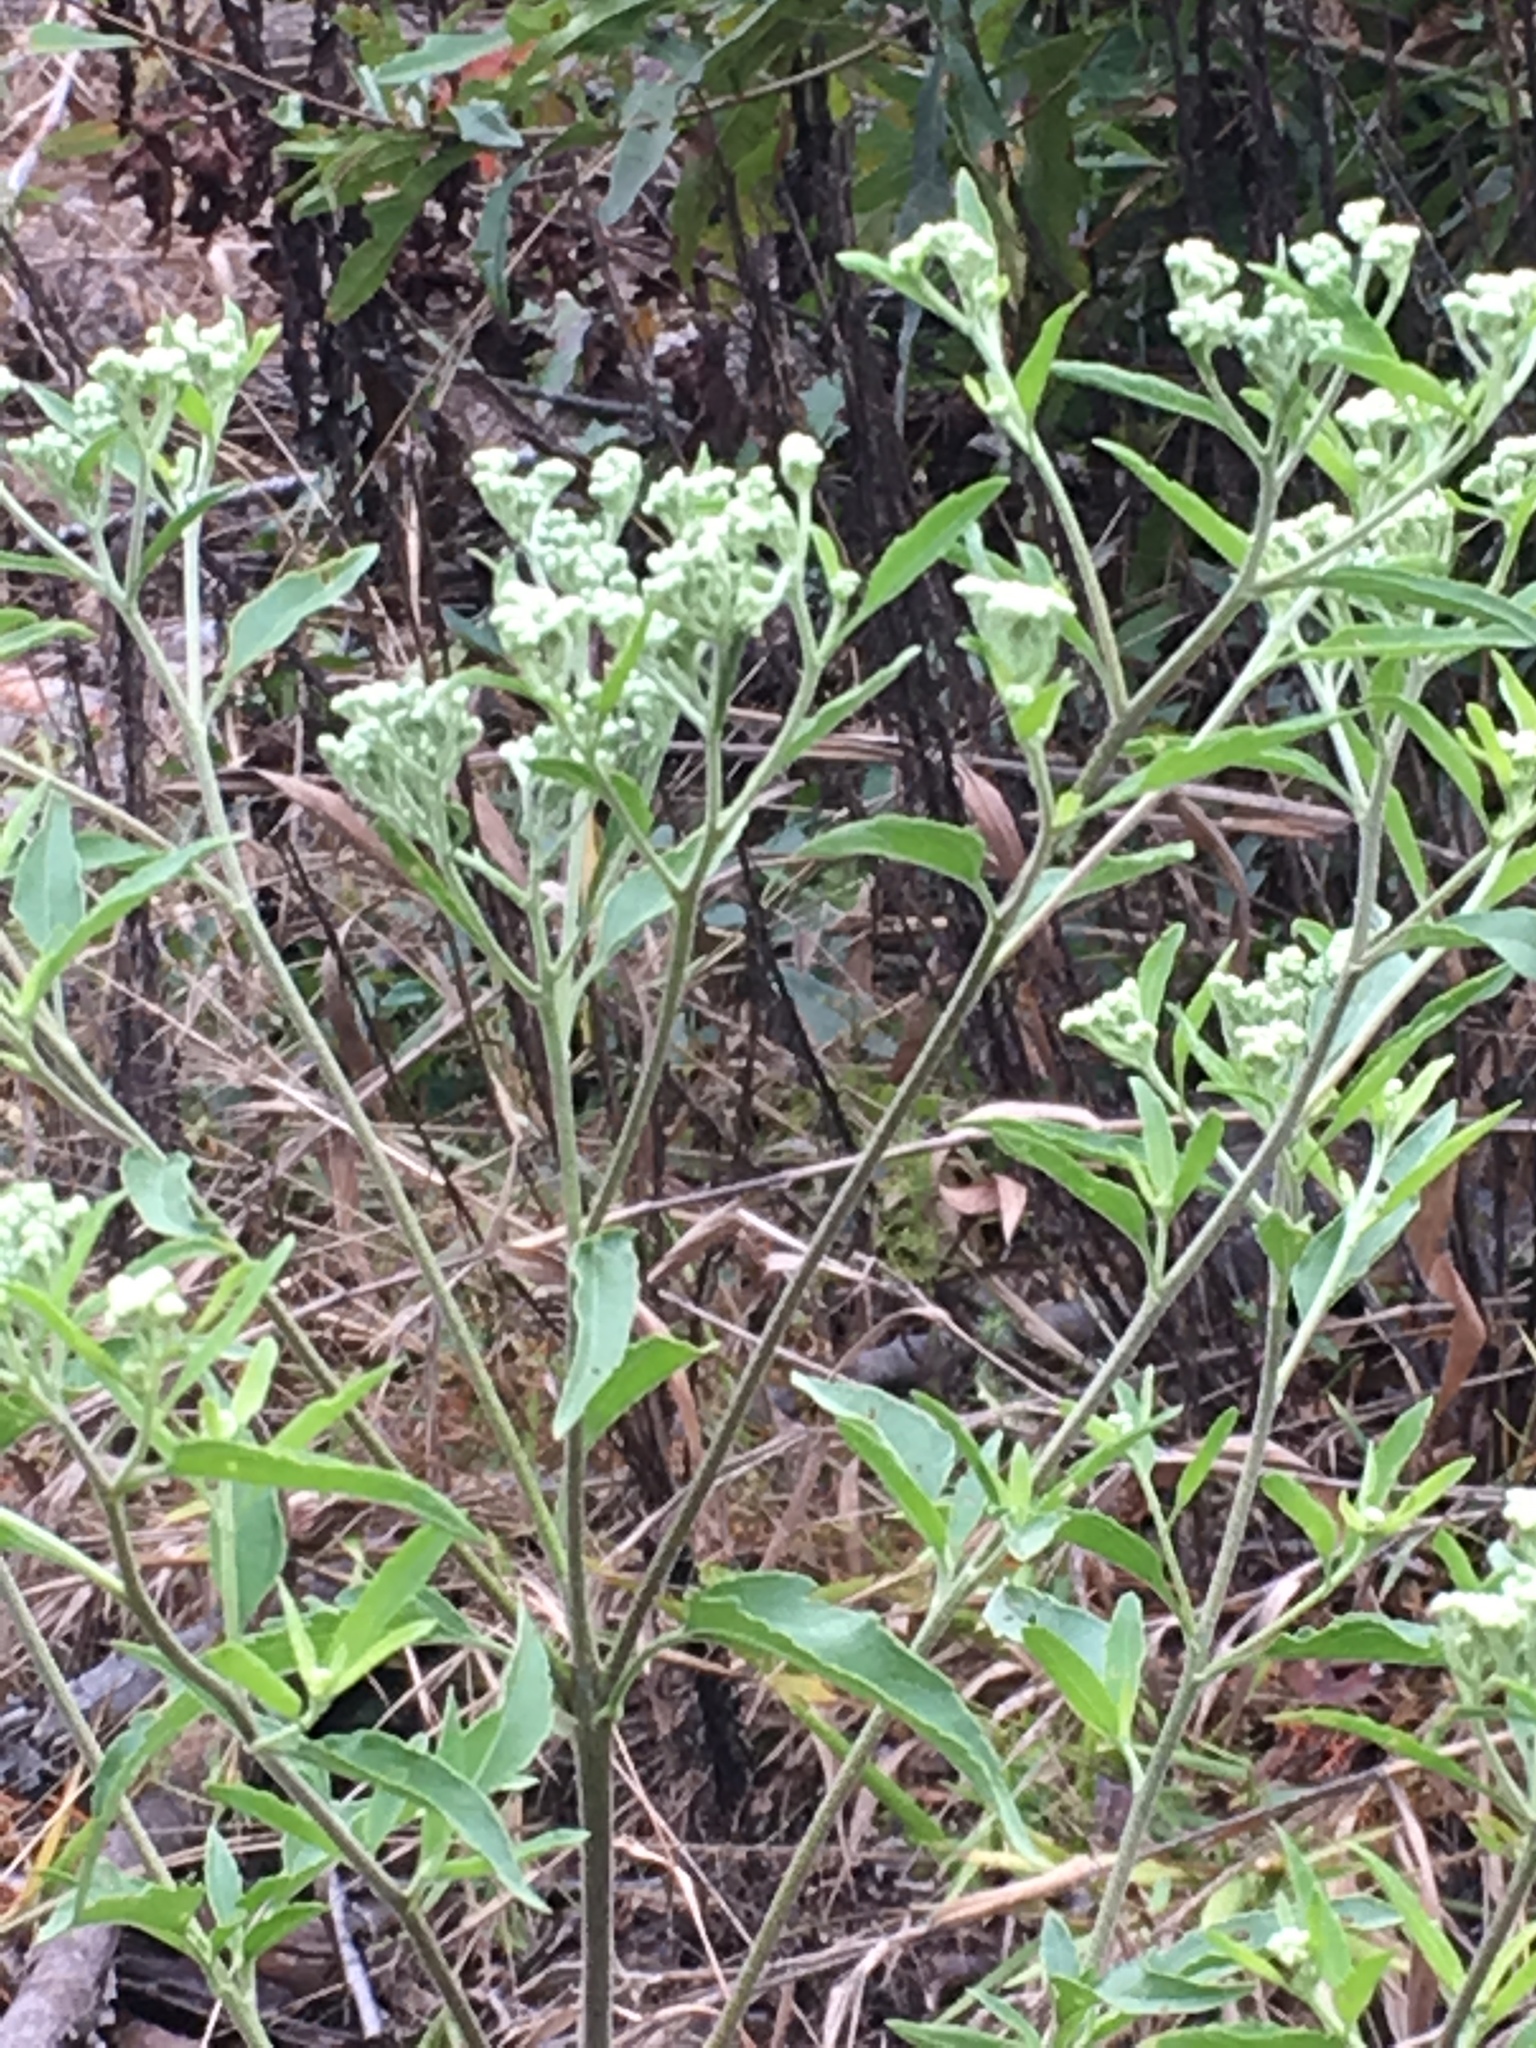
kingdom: Plantae
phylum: Tracheophyta
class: Magnoliopsida
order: Asterales
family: Asteraceae
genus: Eupatorium
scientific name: Eupatorium serotinum
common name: Late boneset
